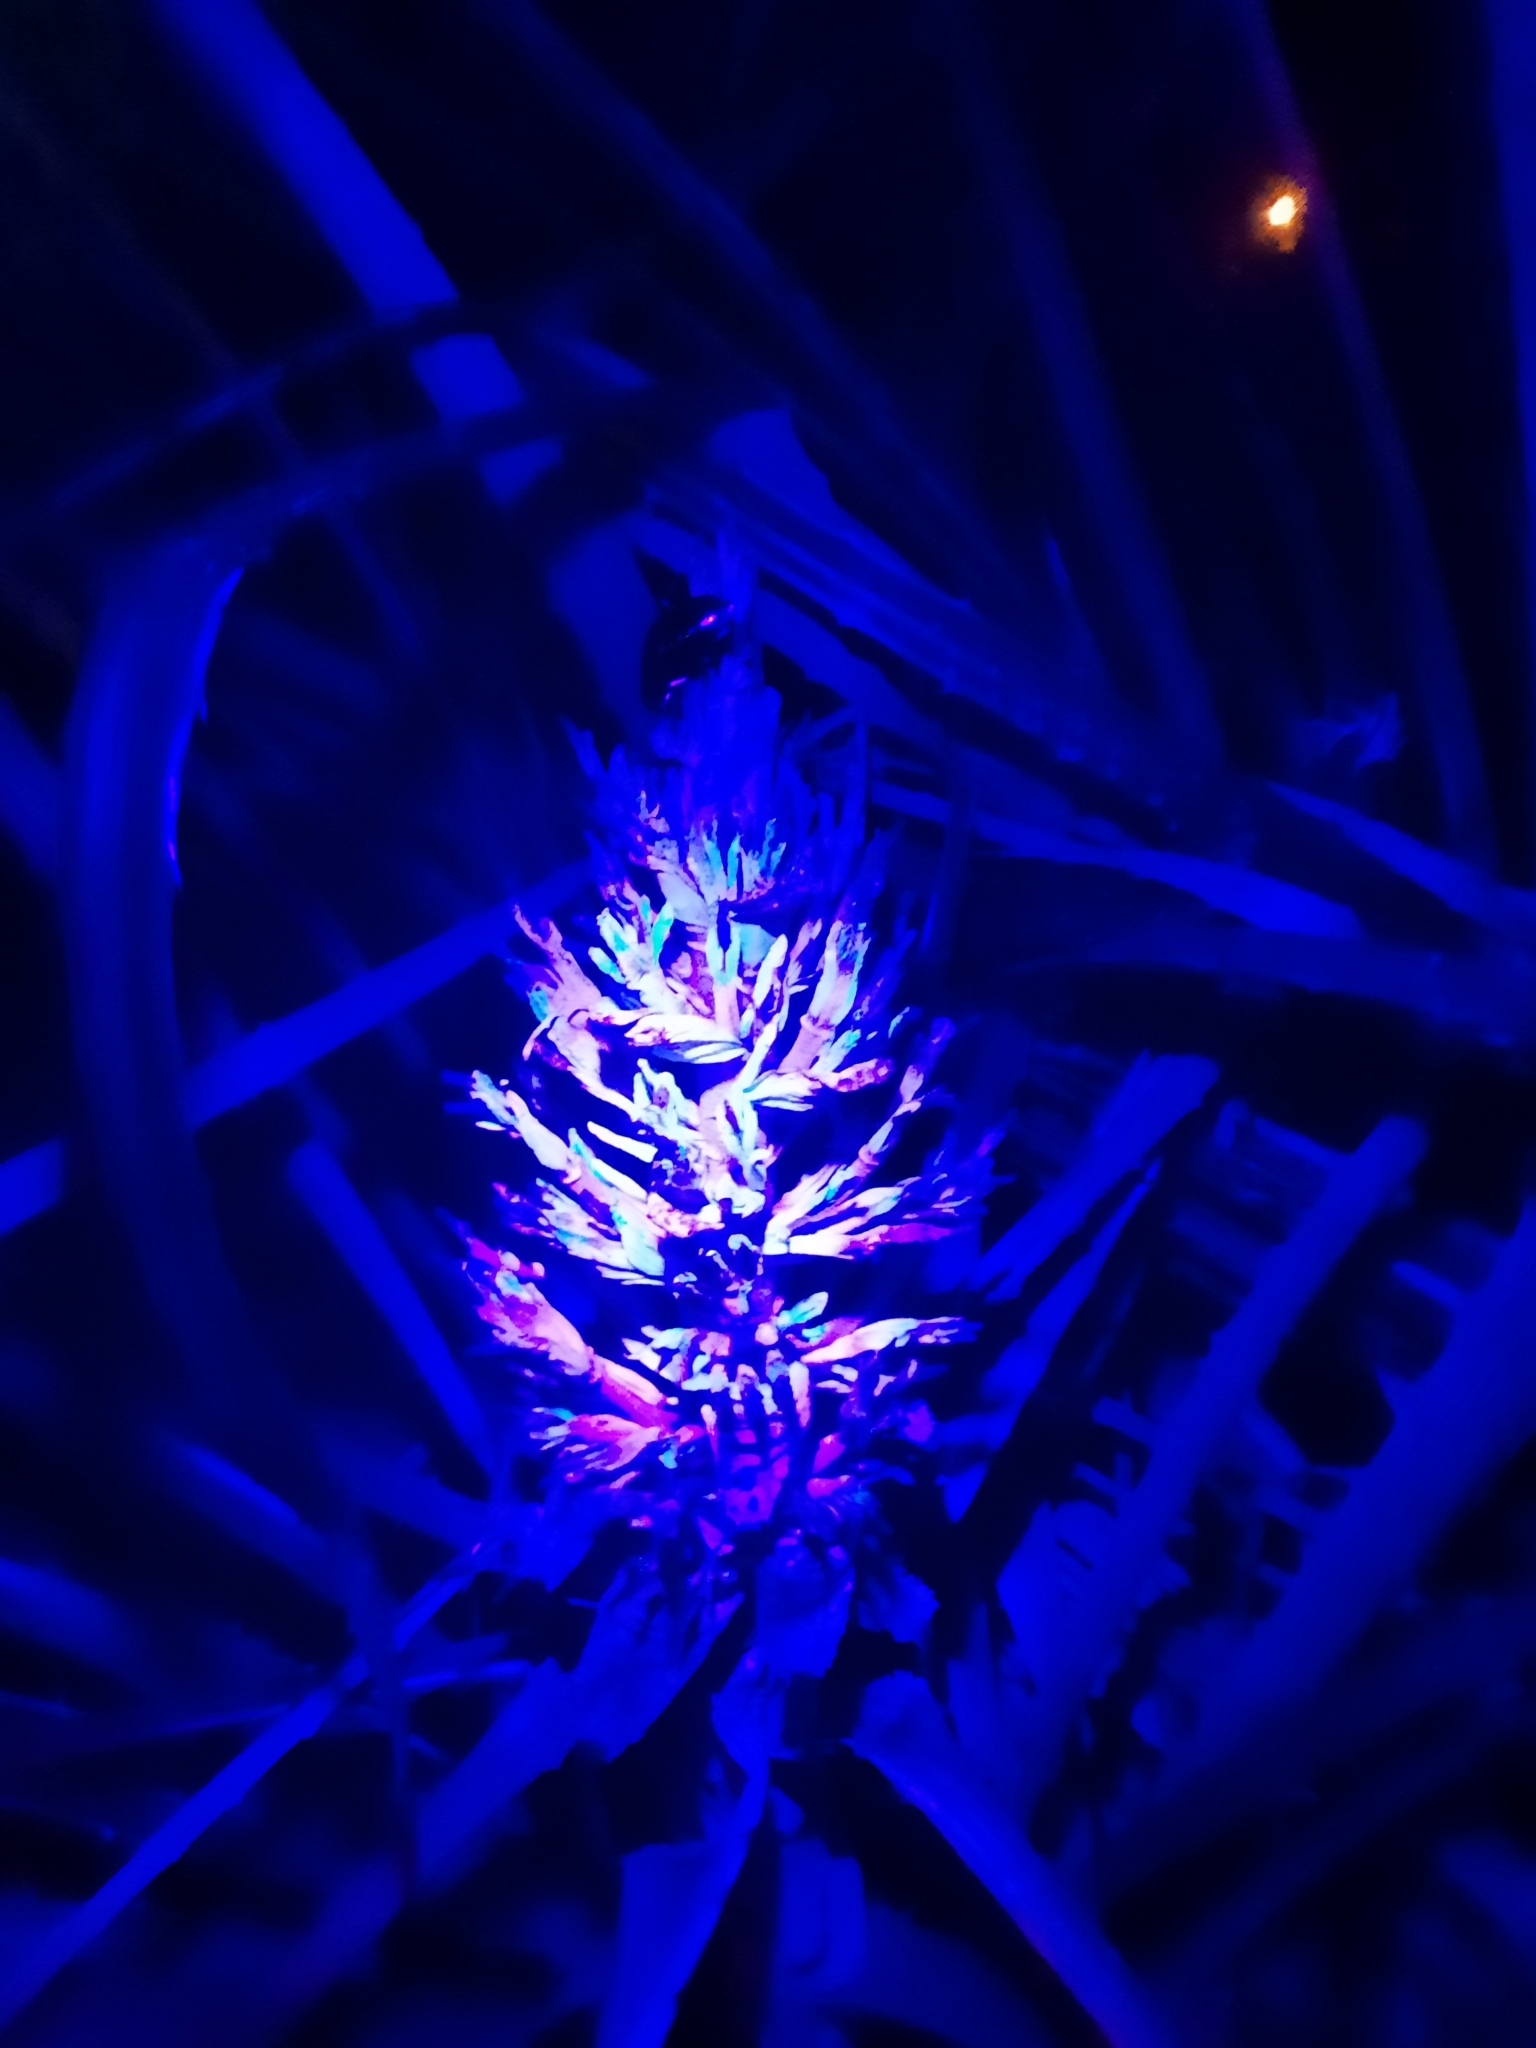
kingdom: Plantae
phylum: Tracheophyta
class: Liliopsida
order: Poales
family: Bromeliaceae
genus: Bromelia
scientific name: Bromelia pinguin
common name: Pinguin
